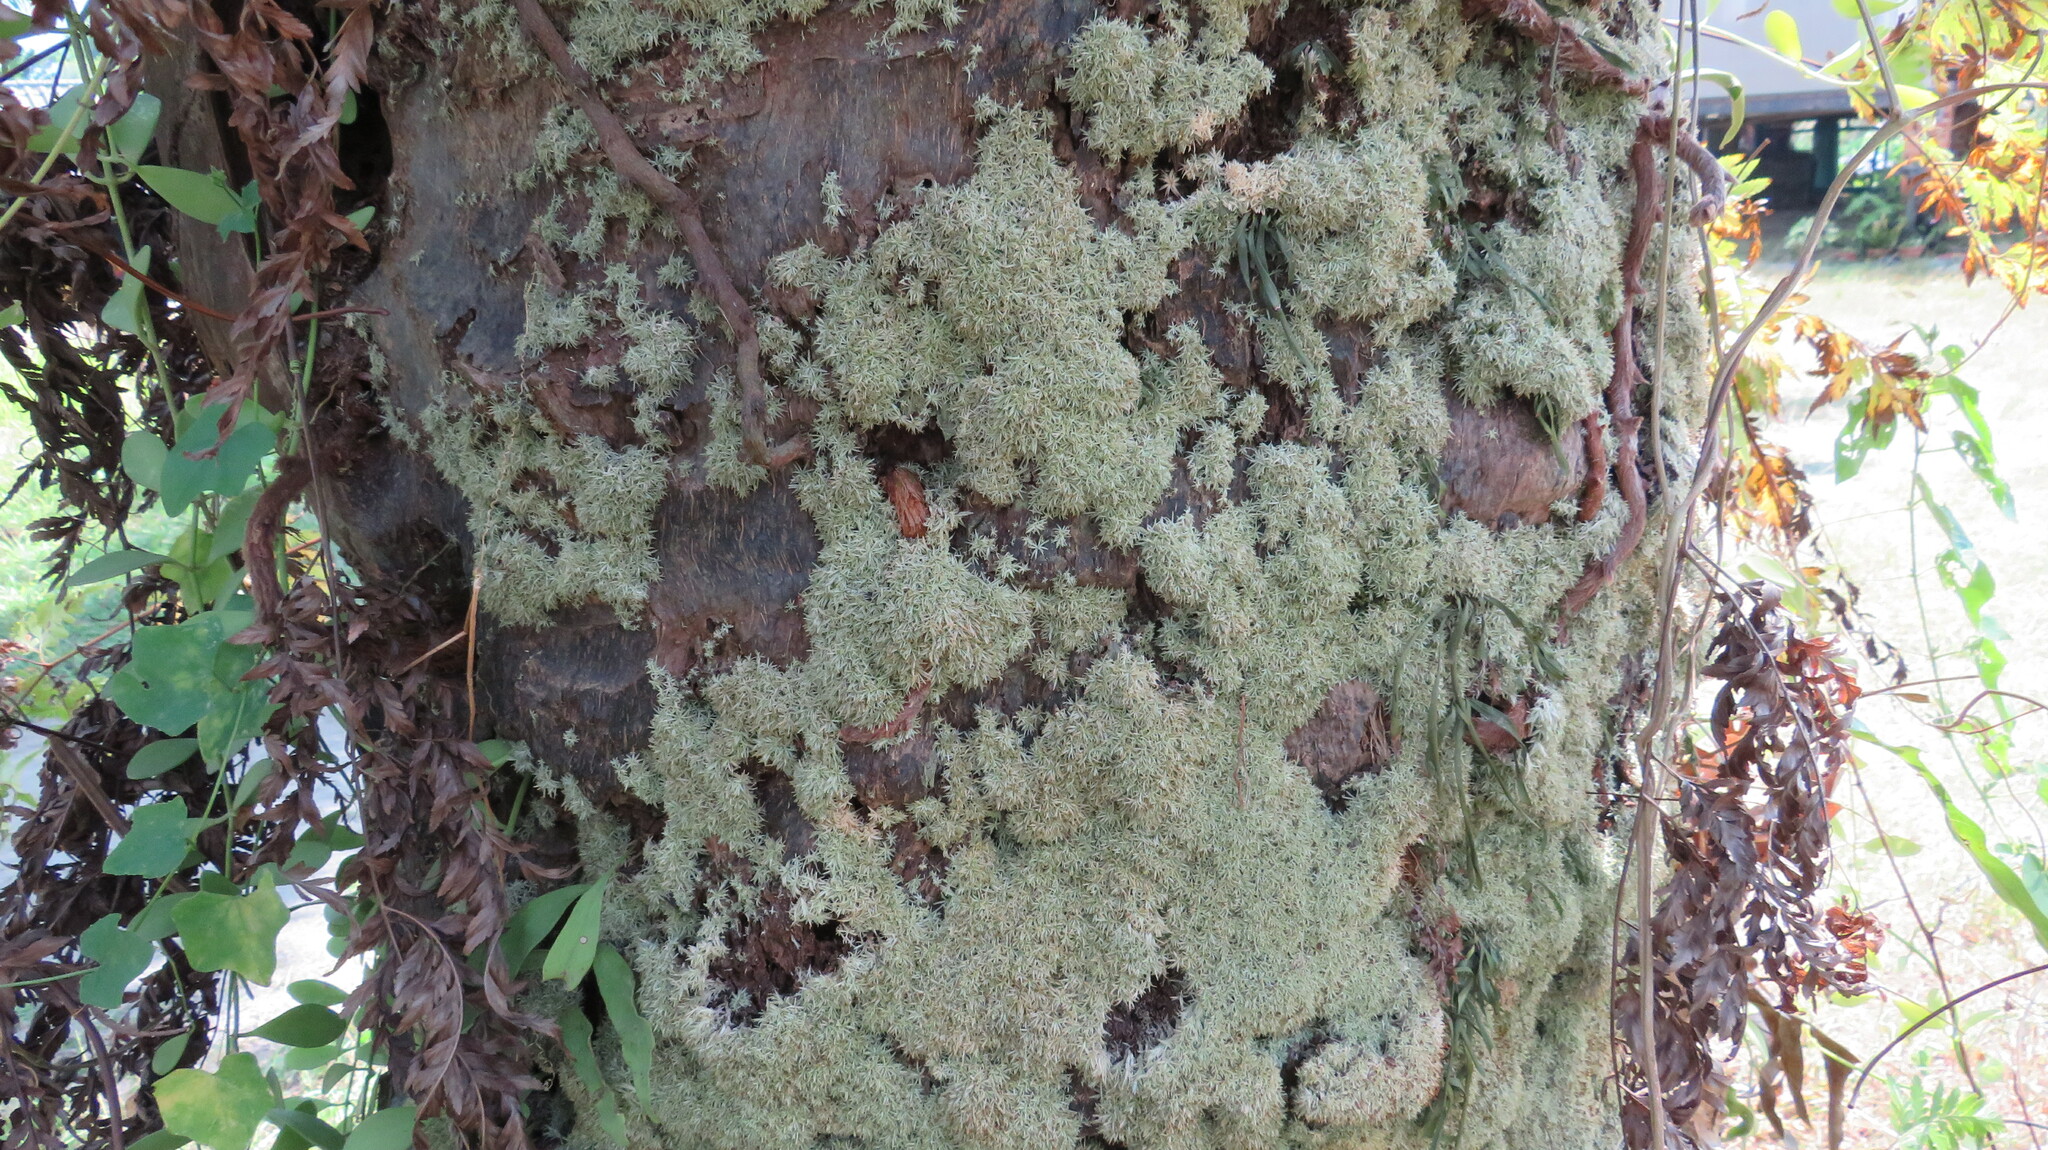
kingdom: Plantae
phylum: Bryophyta
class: Bryopsida
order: Dicranales
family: Octoblepharaceae
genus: Octoblepharum
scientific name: Octoblepharum albidum
